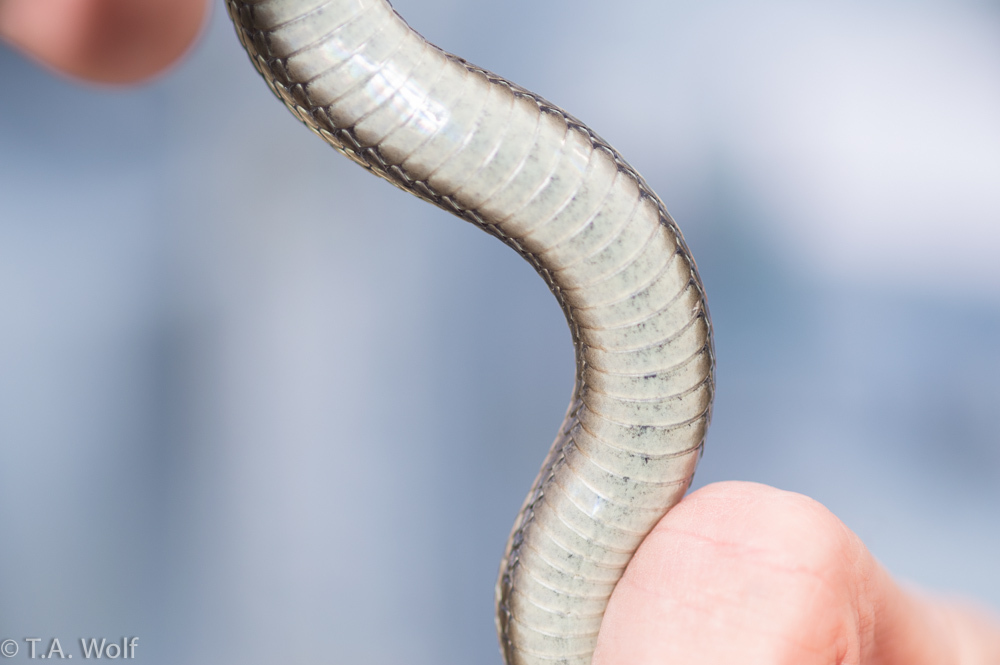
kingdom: Animalia
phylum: Chordata
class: Squamata
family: Colubridae
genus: Thamnophis
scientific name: Thamnophis elegans
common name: Western terrestrial garter snake
